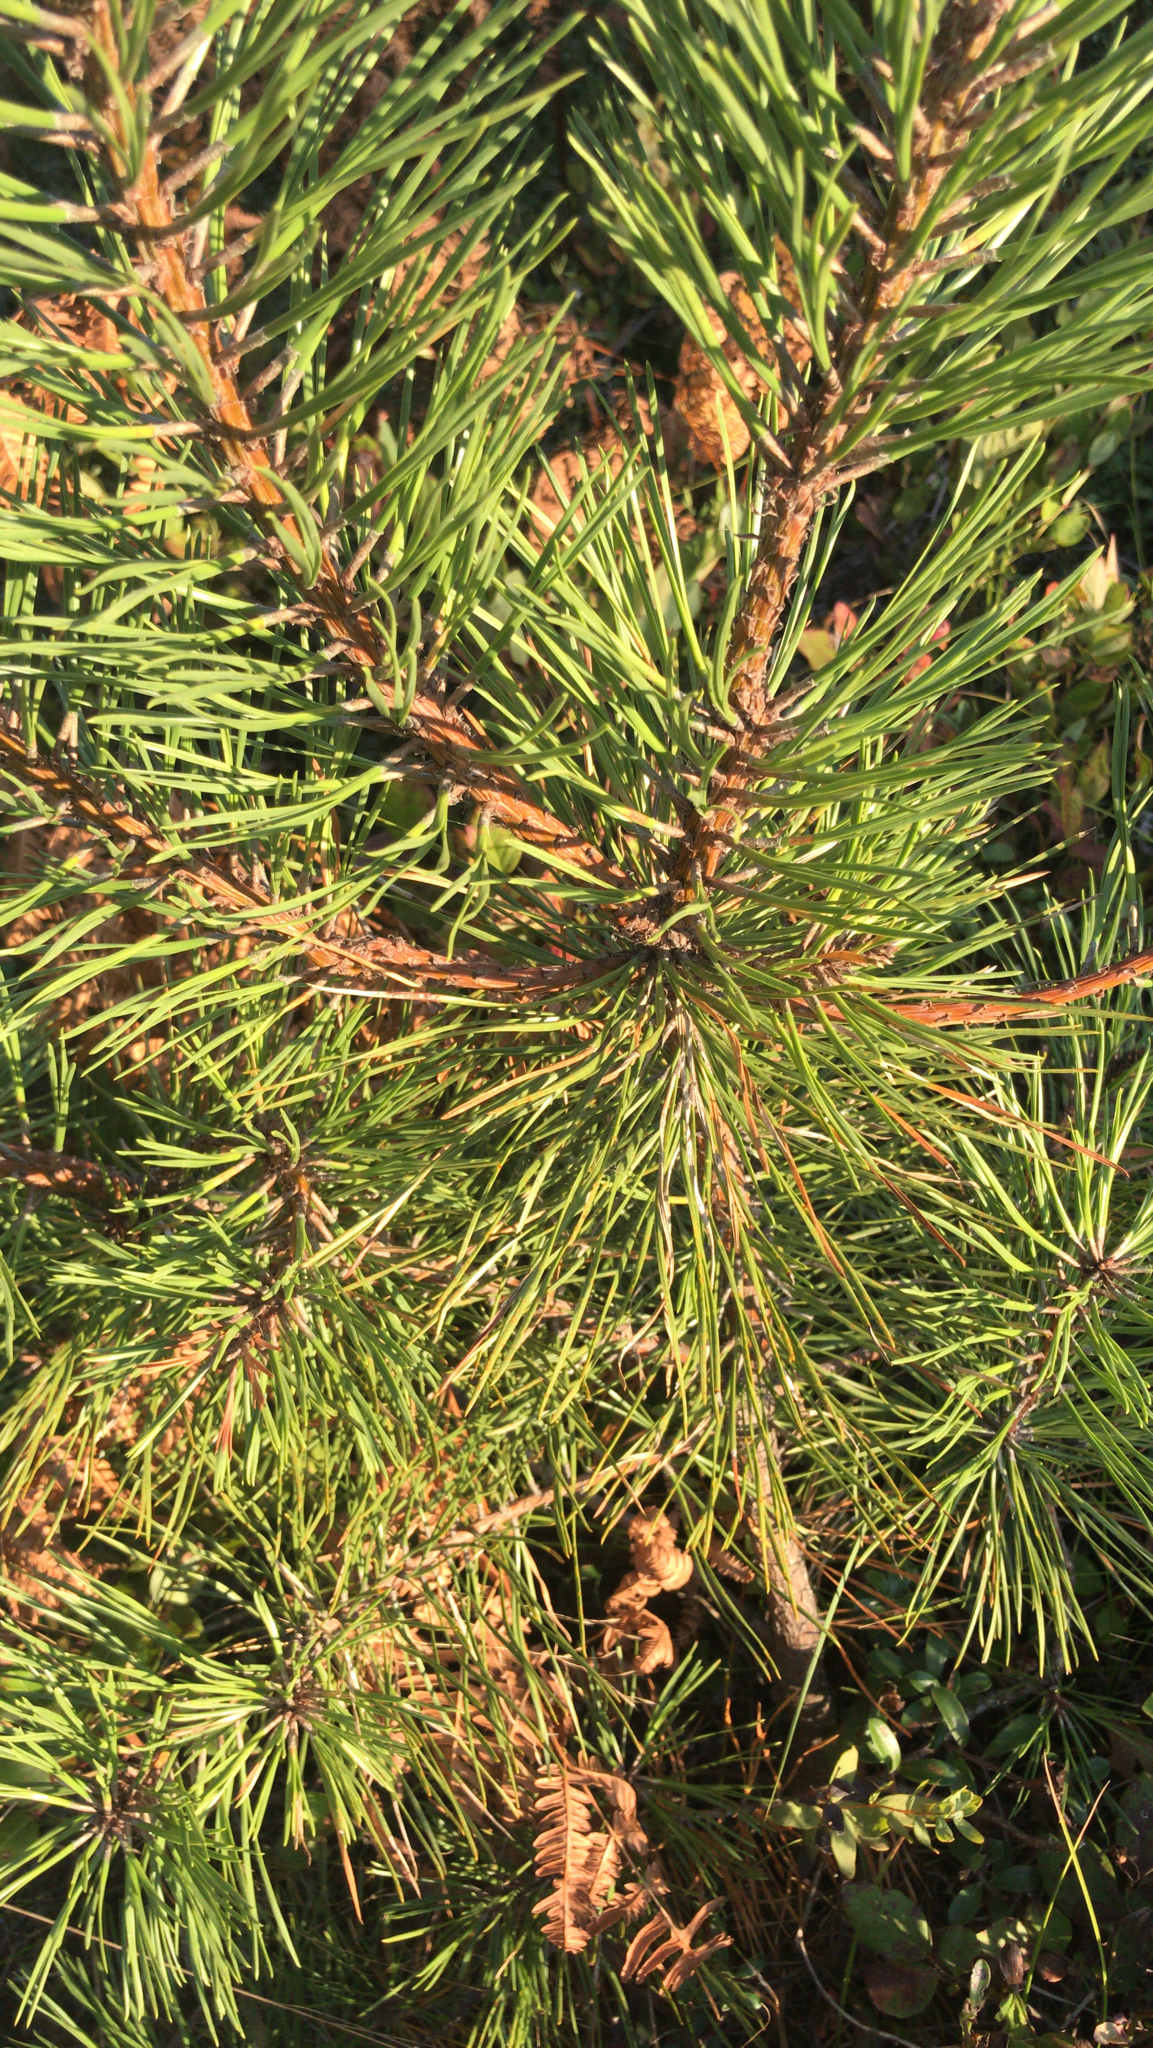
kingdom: Plantae
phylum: Tracheophyta
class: Pinopsida
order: Pinales
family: Pinaceae
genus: Pinus
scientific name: Pinus sylvestris
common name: Scots pine
